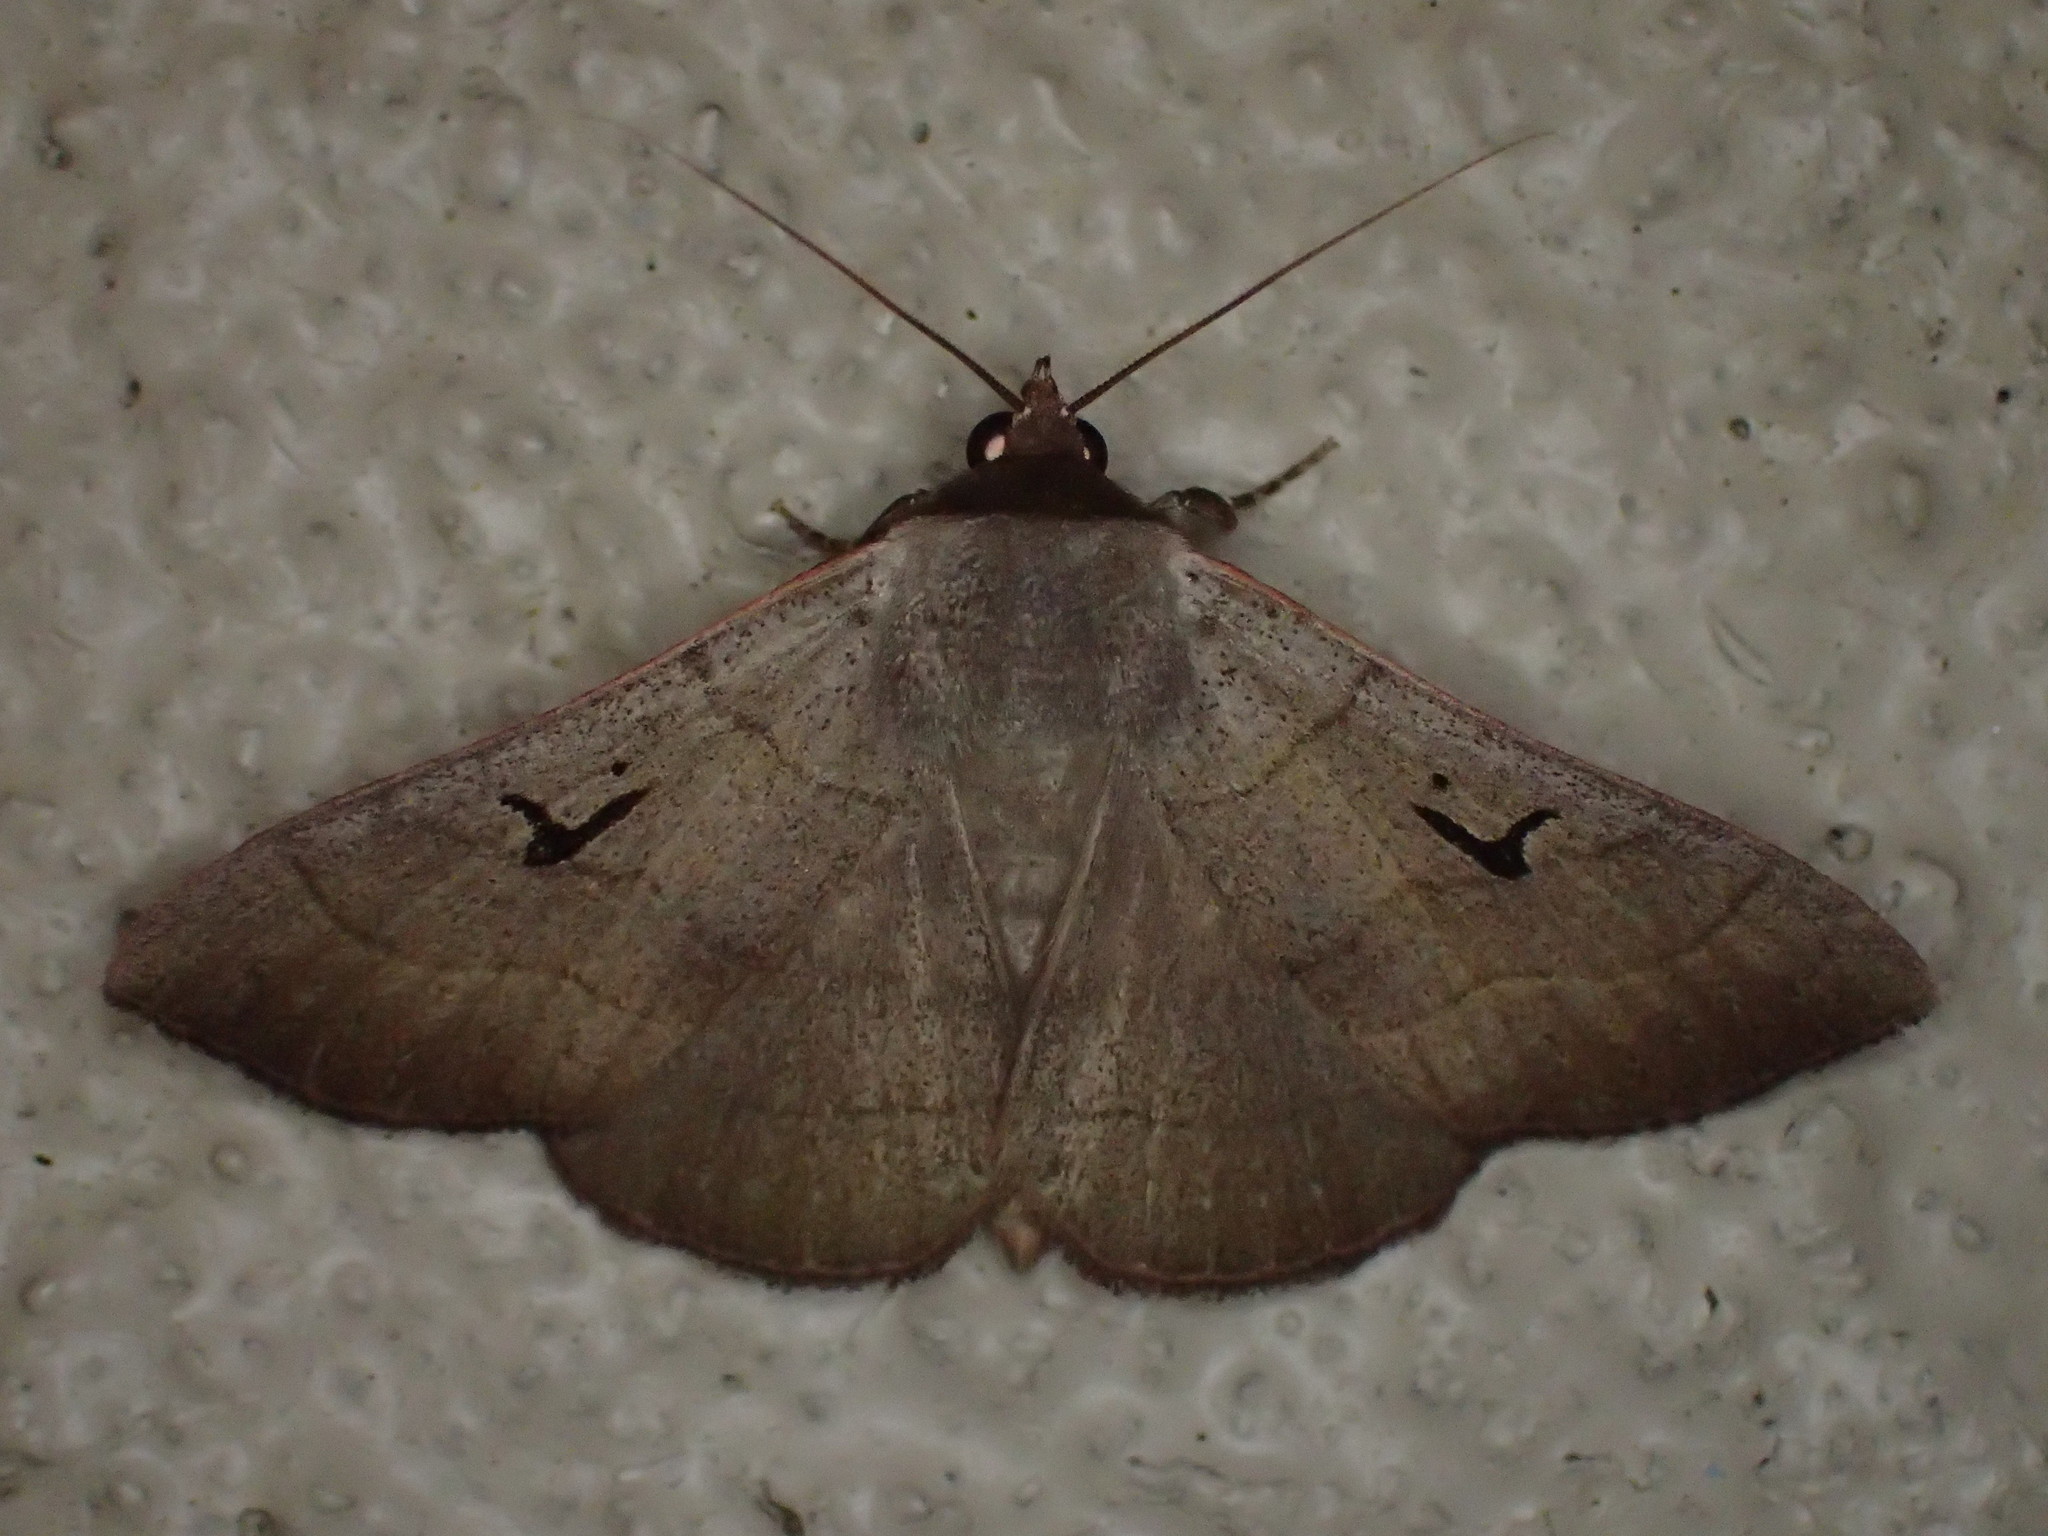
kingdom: Animalia
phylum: Arthropoda
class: Insecta
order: Lepidoptera
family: Erebidae
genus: Panopoda
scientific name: Panopoda carneicosta
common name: Brown panopoda moth
